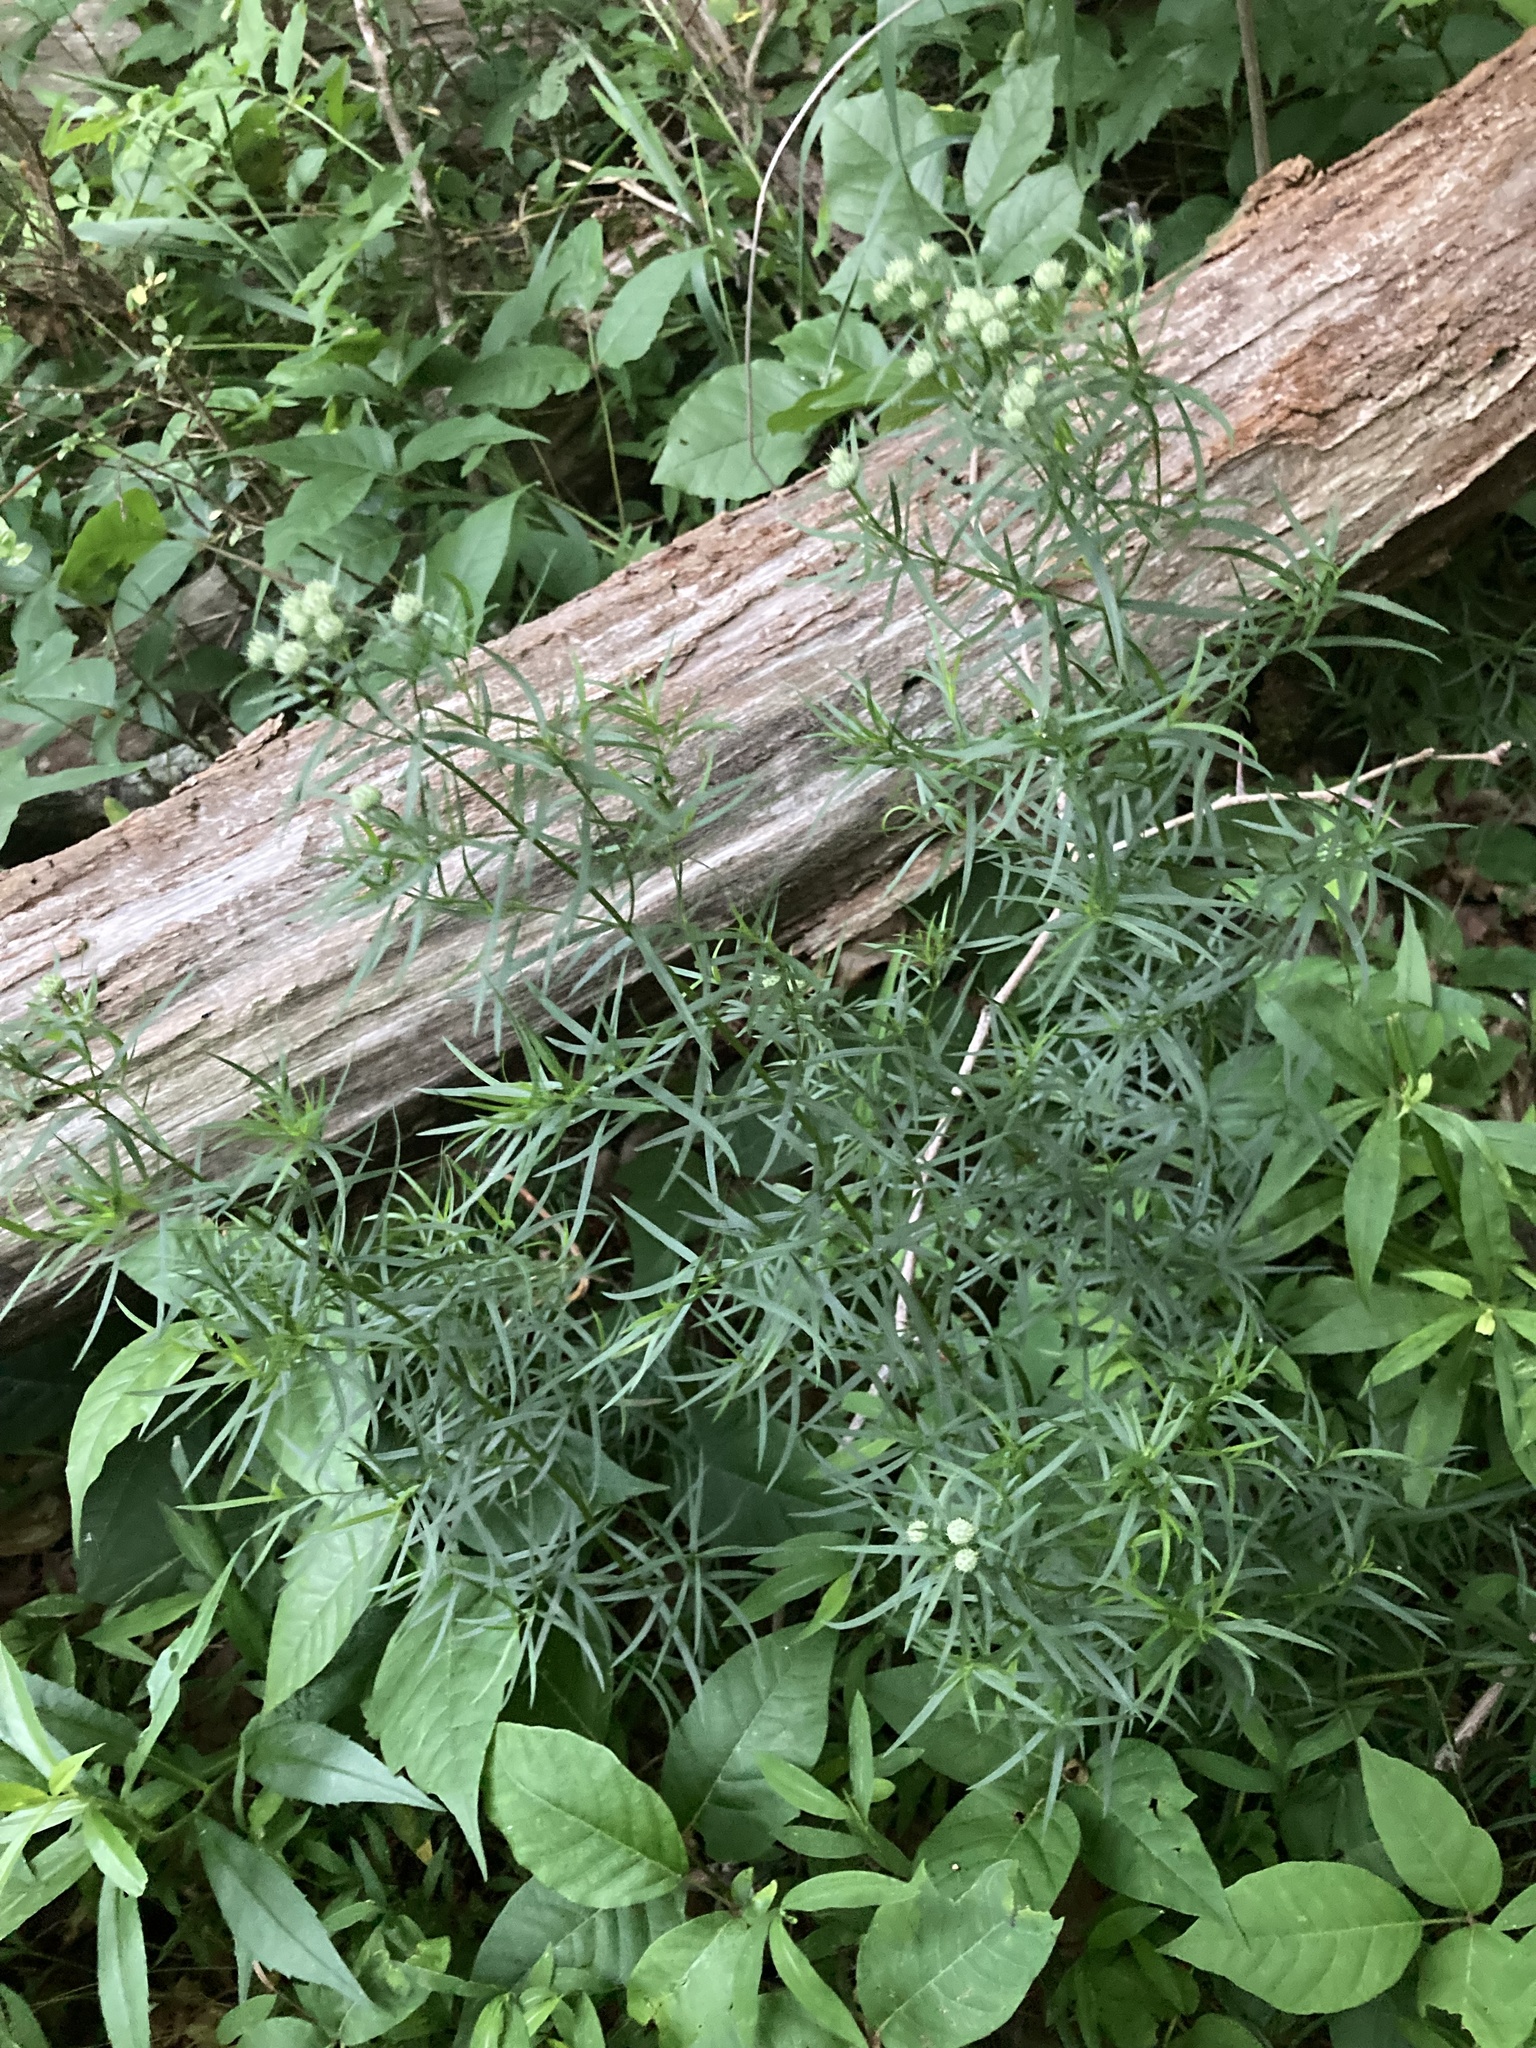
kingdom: Plantae
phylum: Tracheophyta
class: Magnoliopsida
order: Lamiales
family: Lamiaceae
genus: Pycnanthemum
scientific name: Pycnanthemum tenuifolium
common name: Narrow-leaf mountain-mint
